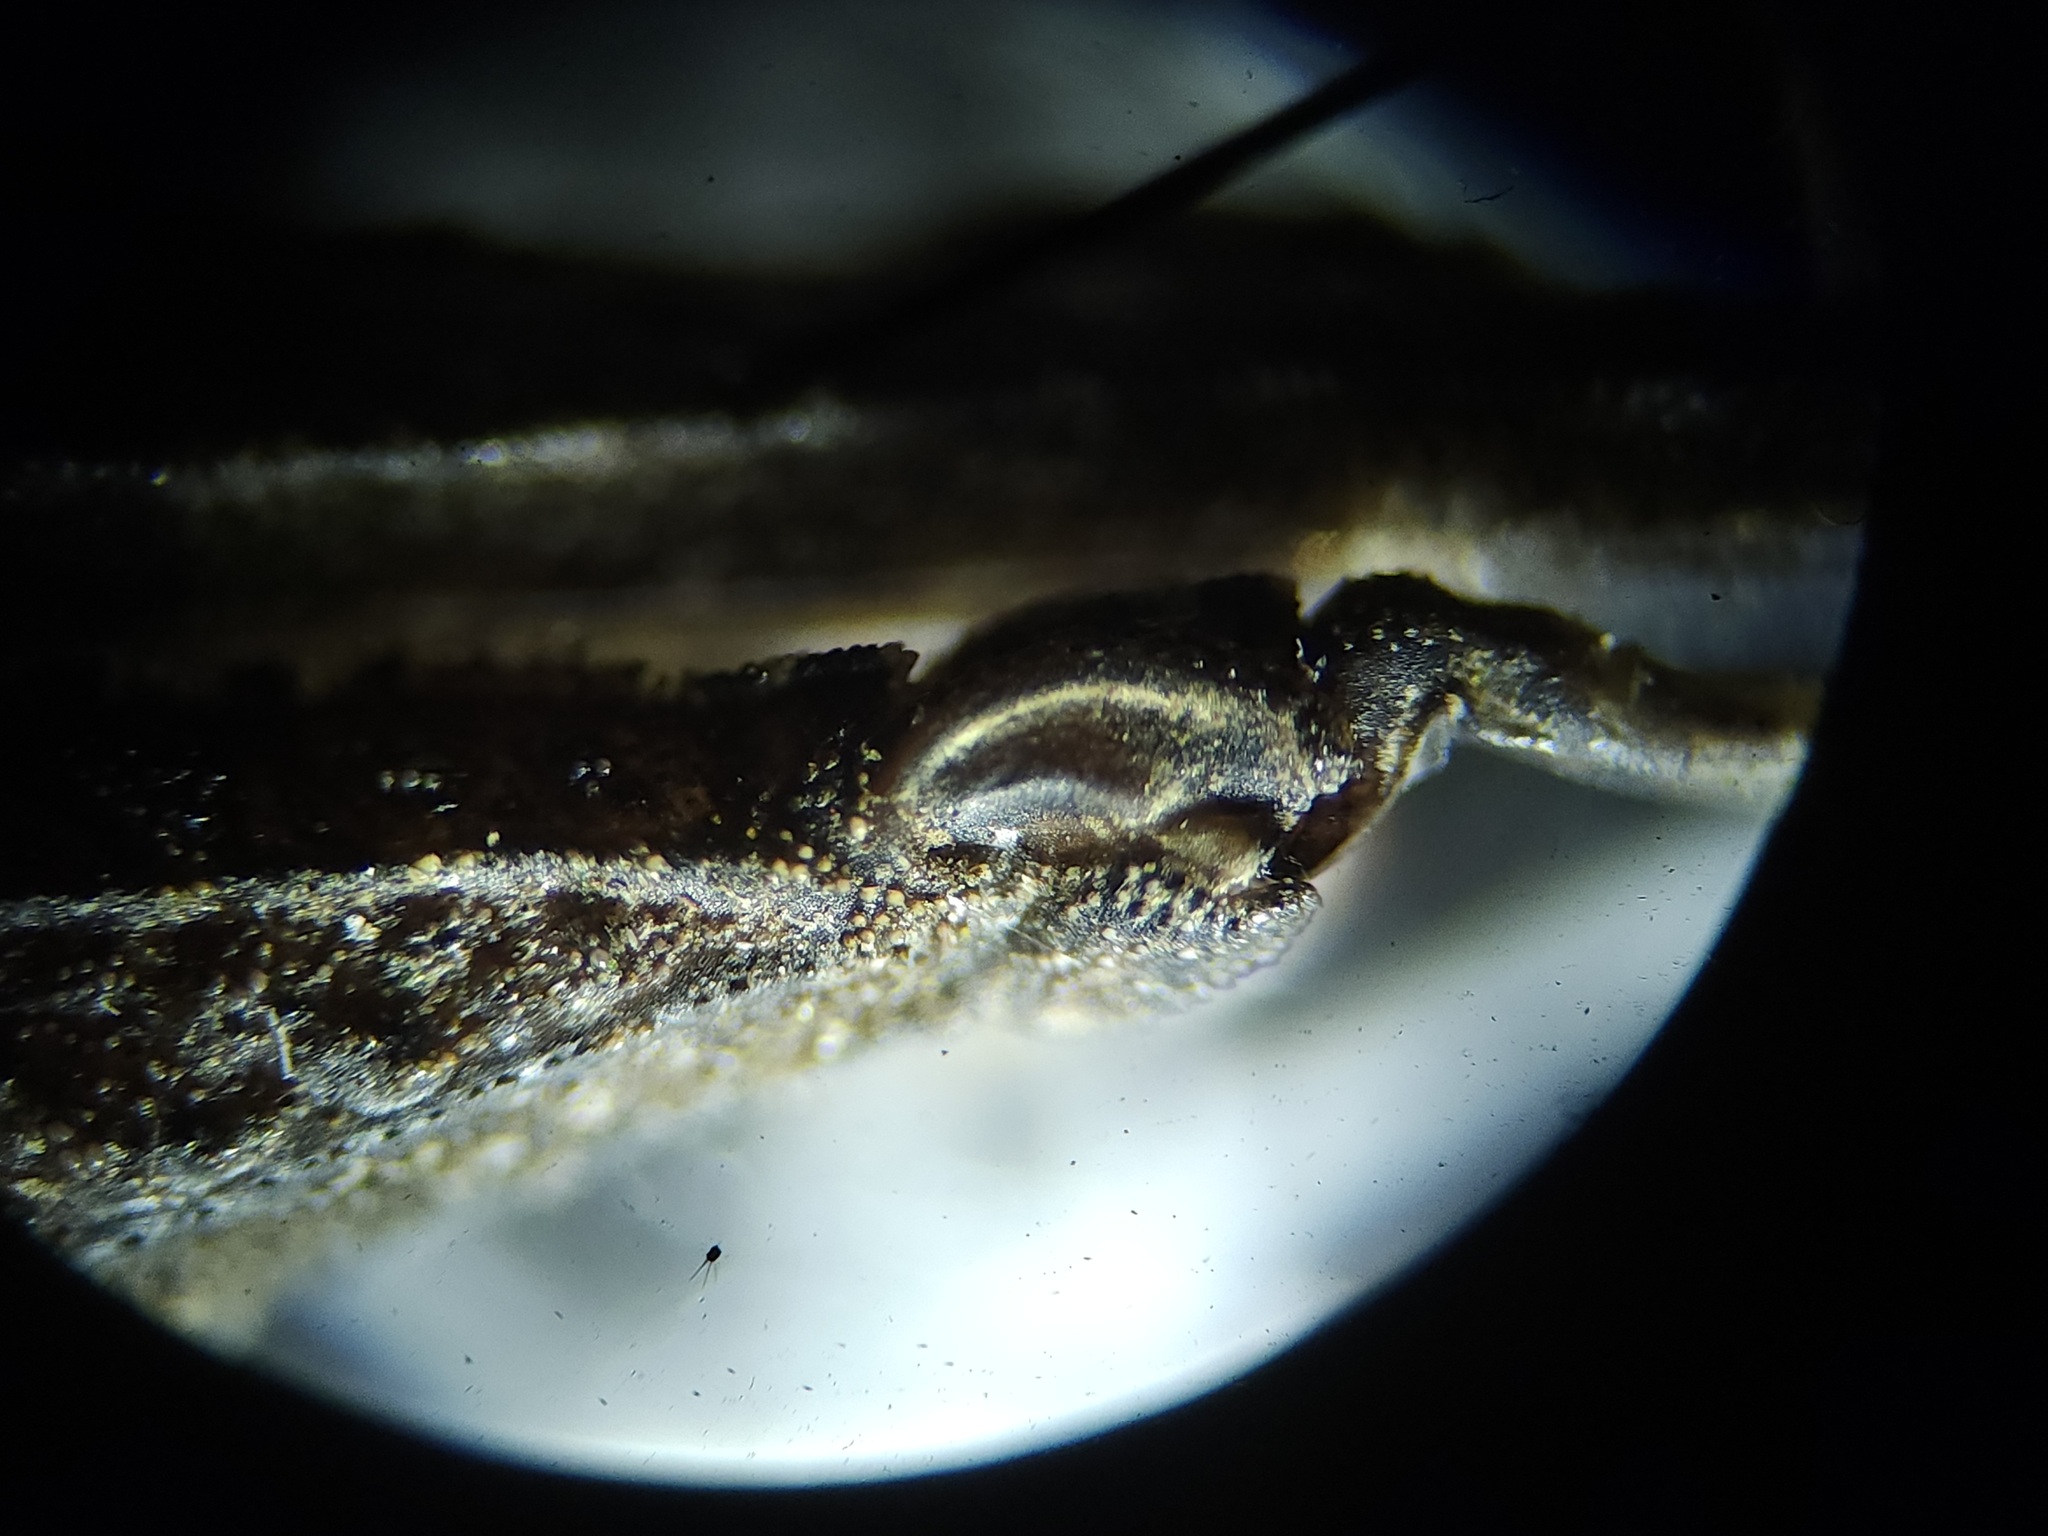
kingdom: Animalia
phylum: Arthropoda
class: Insecta
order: Orthoptera
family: Tetrigidae
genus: Tetrix
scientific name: Tetrix arenosa
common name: Ornate pygmy grasshopper
